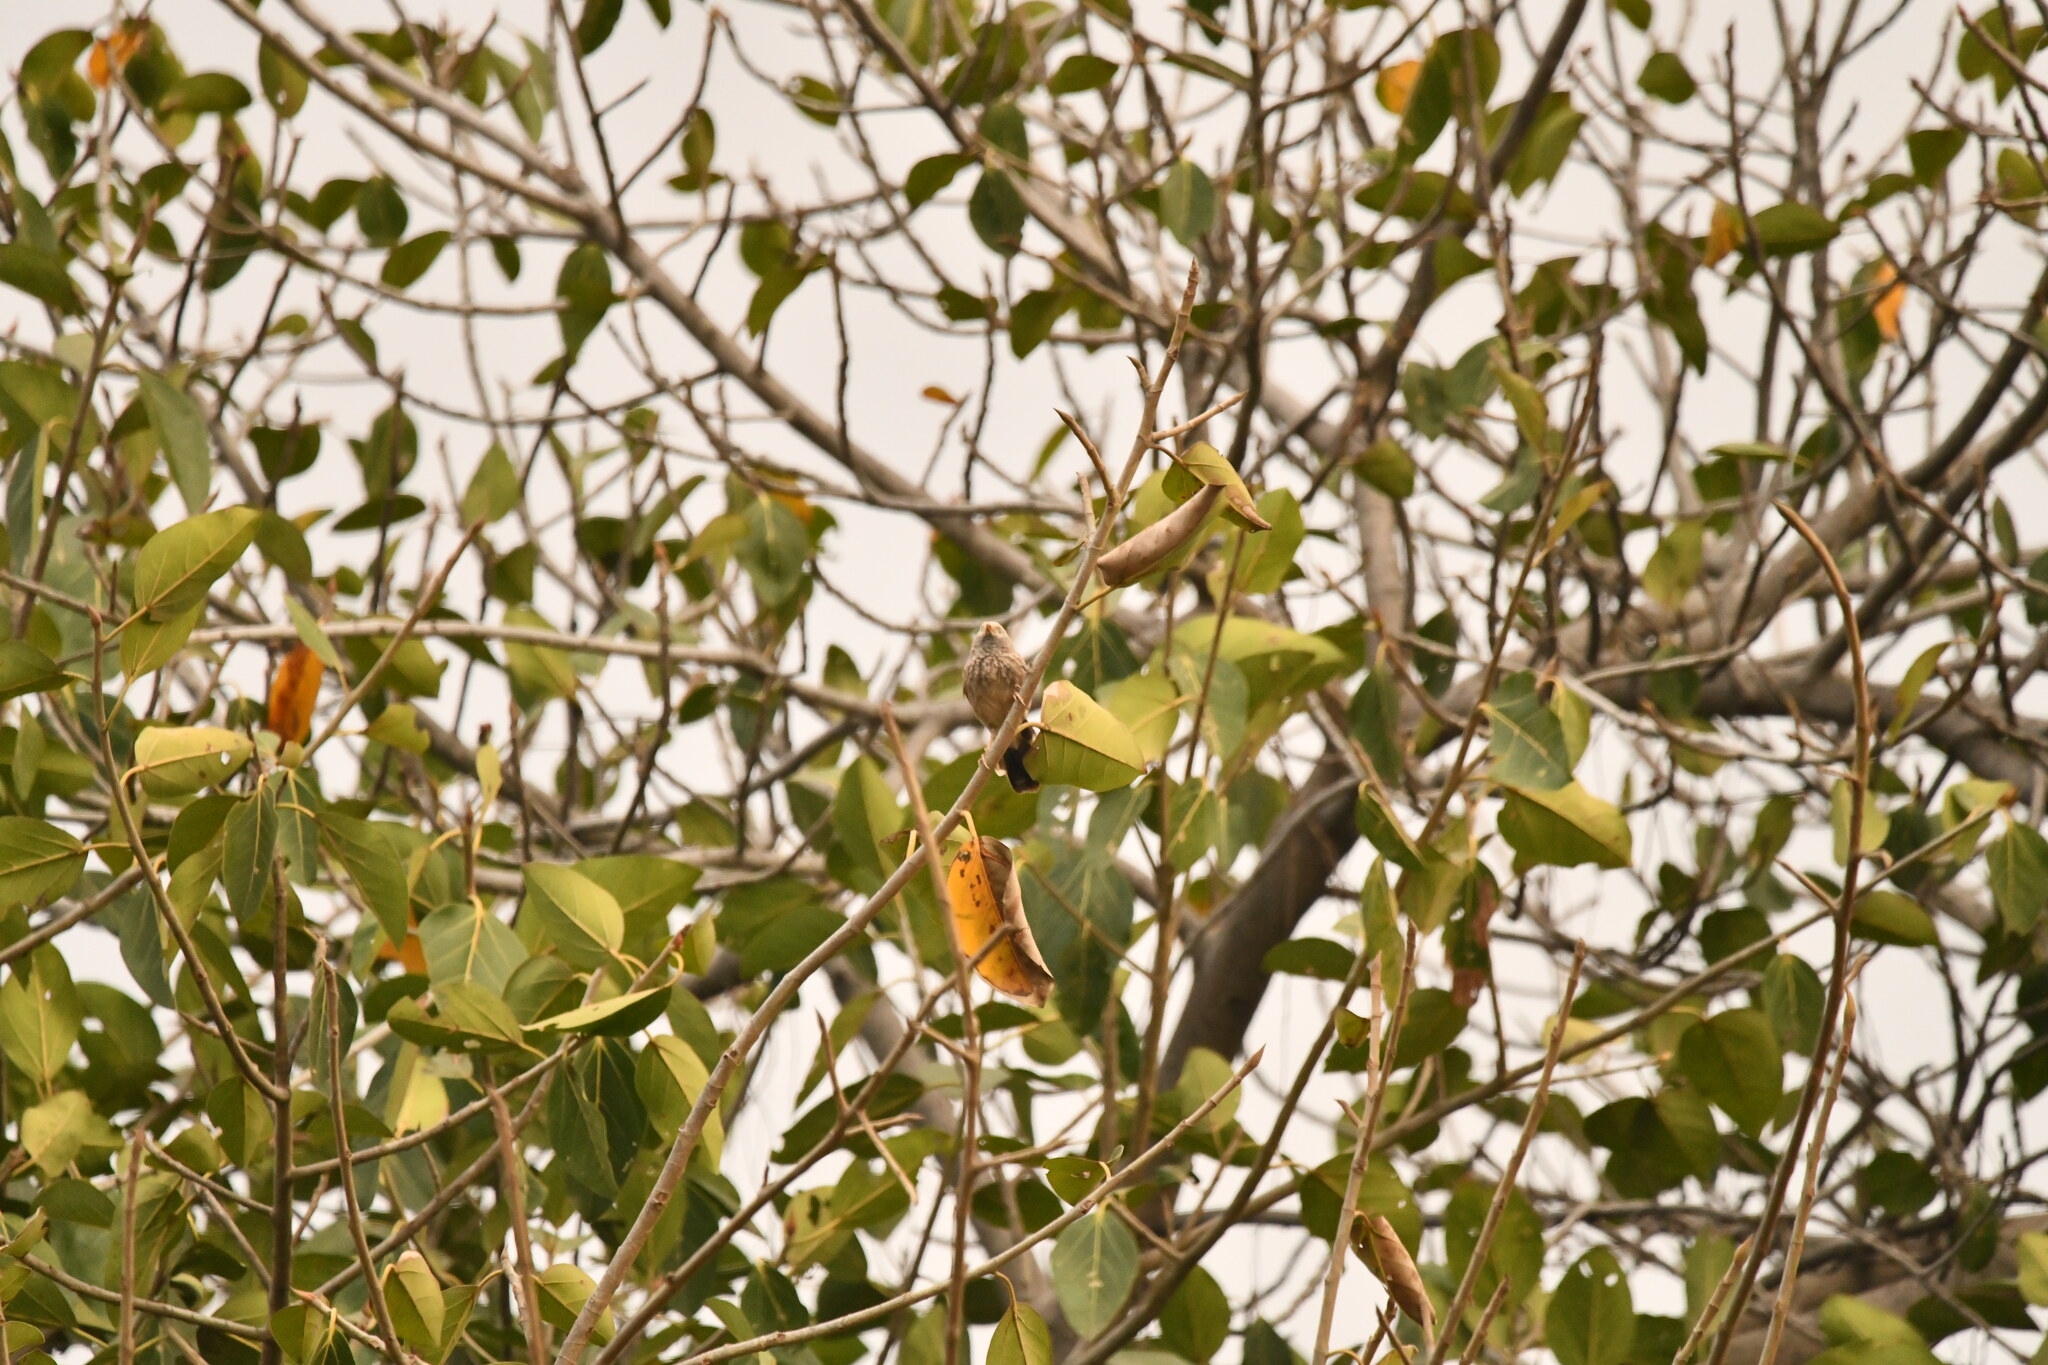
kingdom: Animalia
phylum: Chordata
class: Aves
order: Passeriformes
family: Leiothrichidae
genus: Turdoides
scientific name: Turdoides affinis
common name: Yellow-billed babbler
